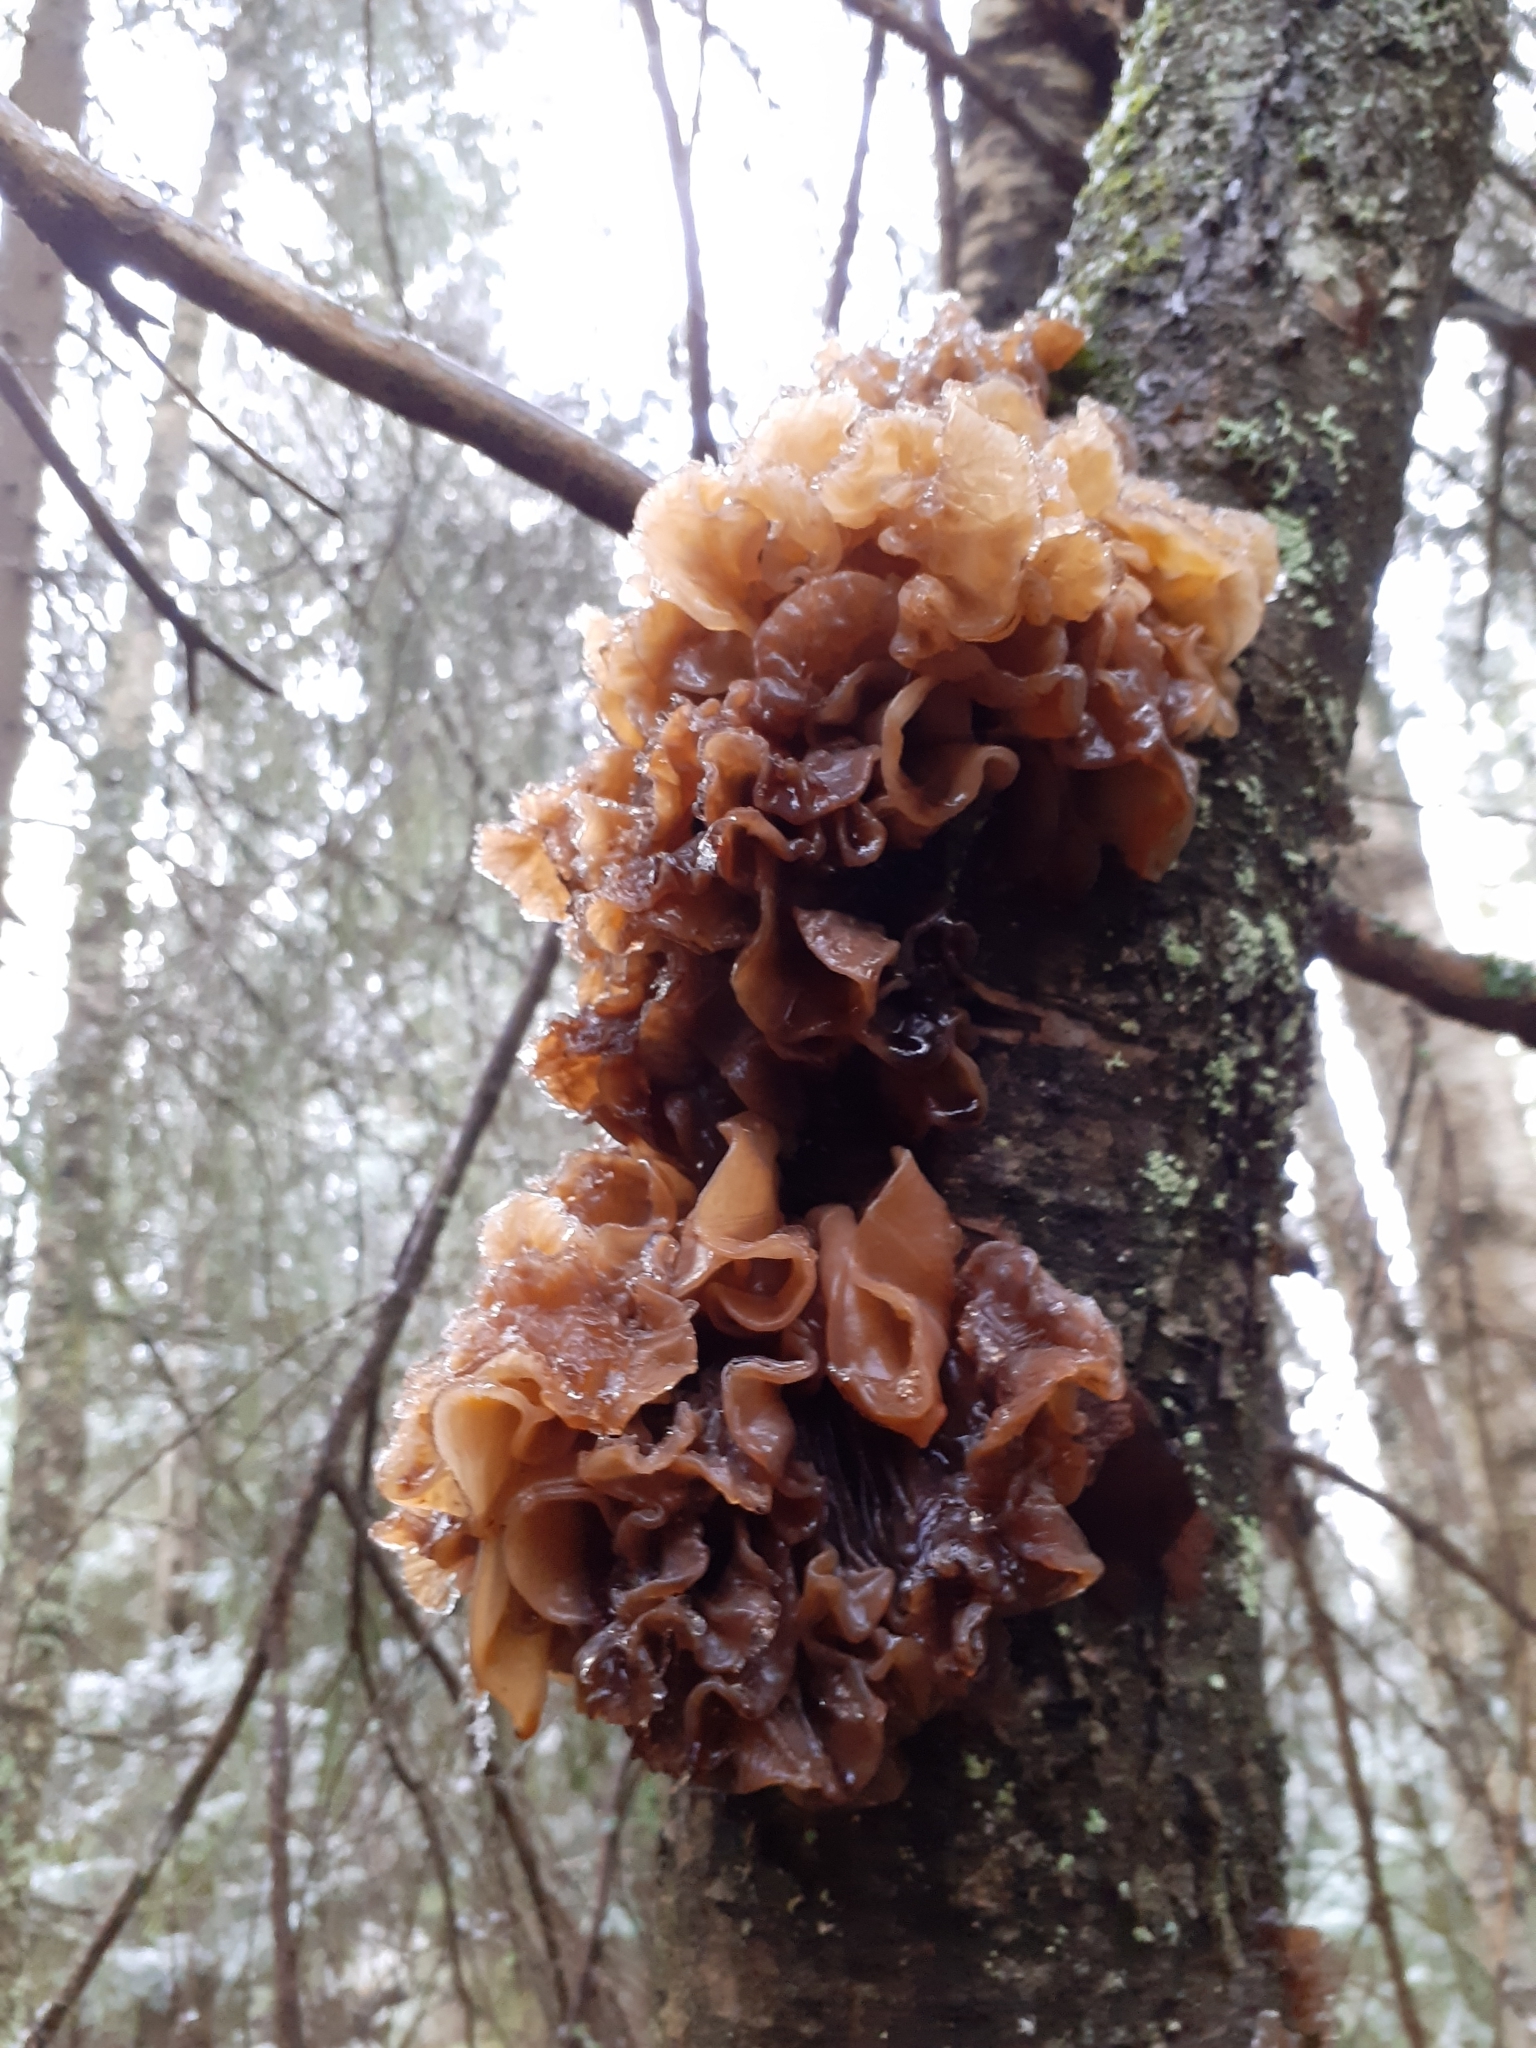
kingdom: Fungi
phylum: Basidiomycota
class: Tremellomycetes
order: Tremellales
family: Tremellaceae
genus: Phaeotremella
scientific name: Phaeotremella frondosa
